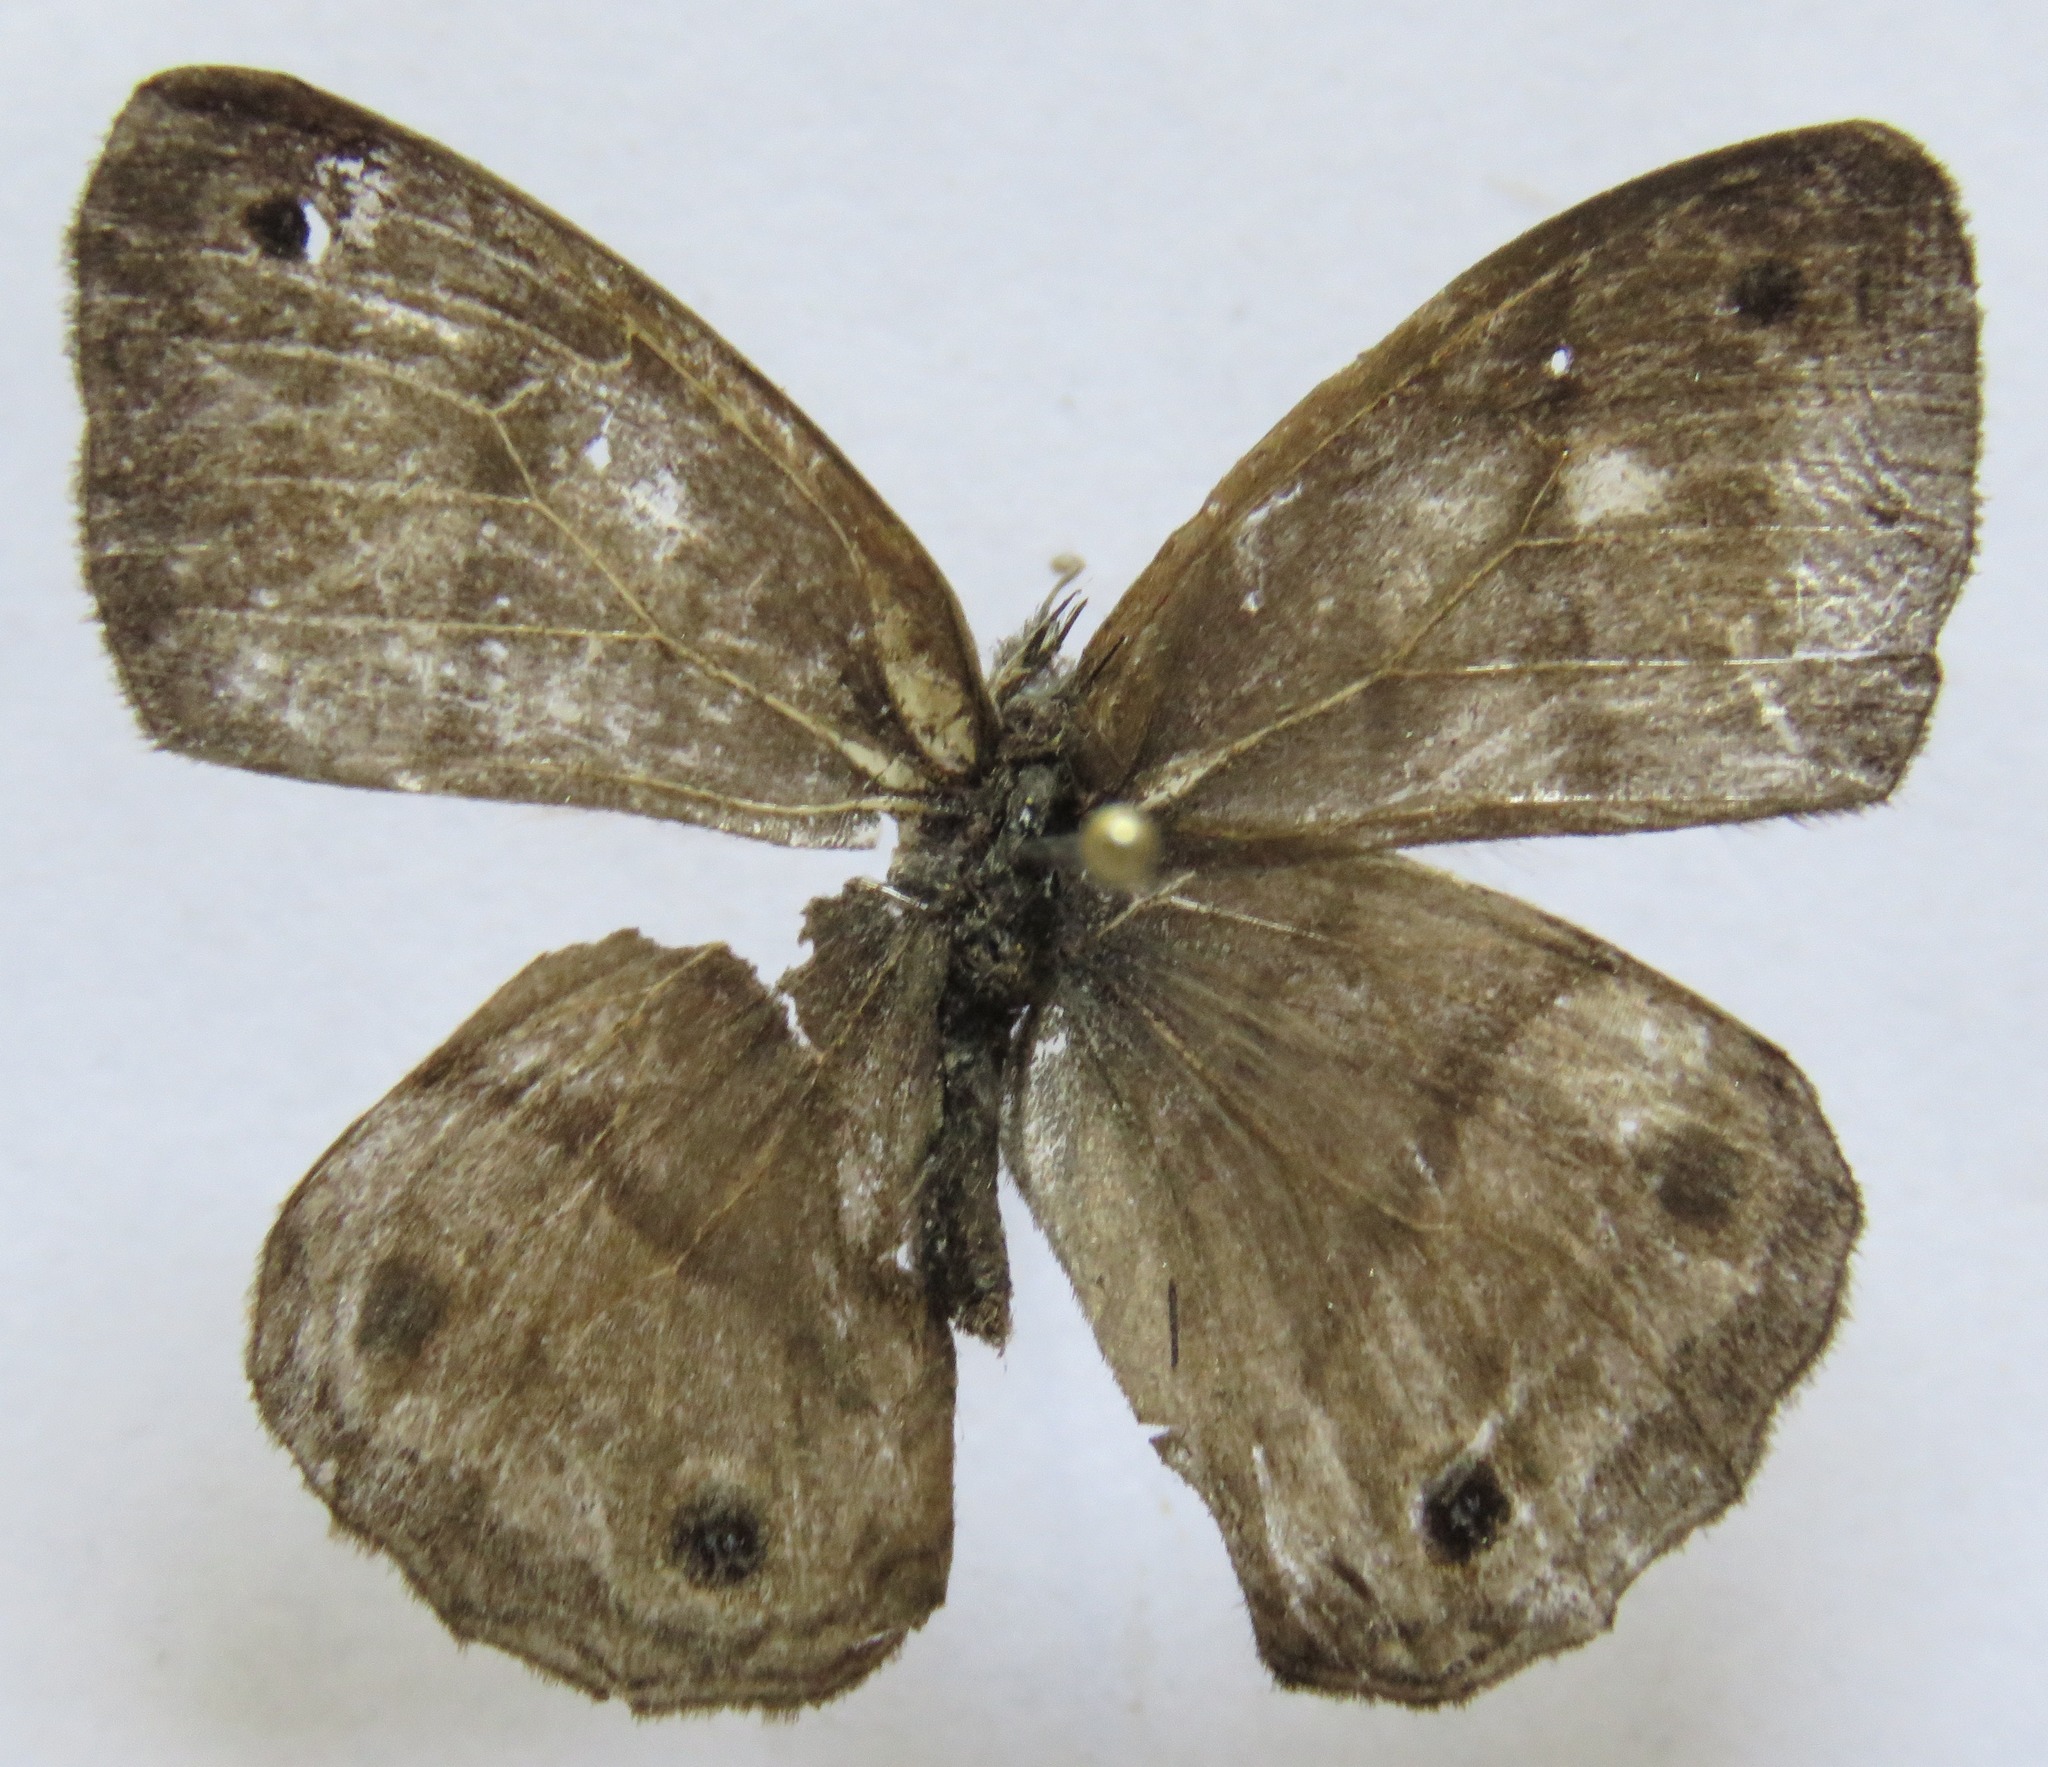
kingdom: Animalia
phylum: Arthropoda
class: Insecta
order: Lepidoptera
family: Nymphalidae
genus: Paryphthimoides
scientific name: Paryphthimoides
